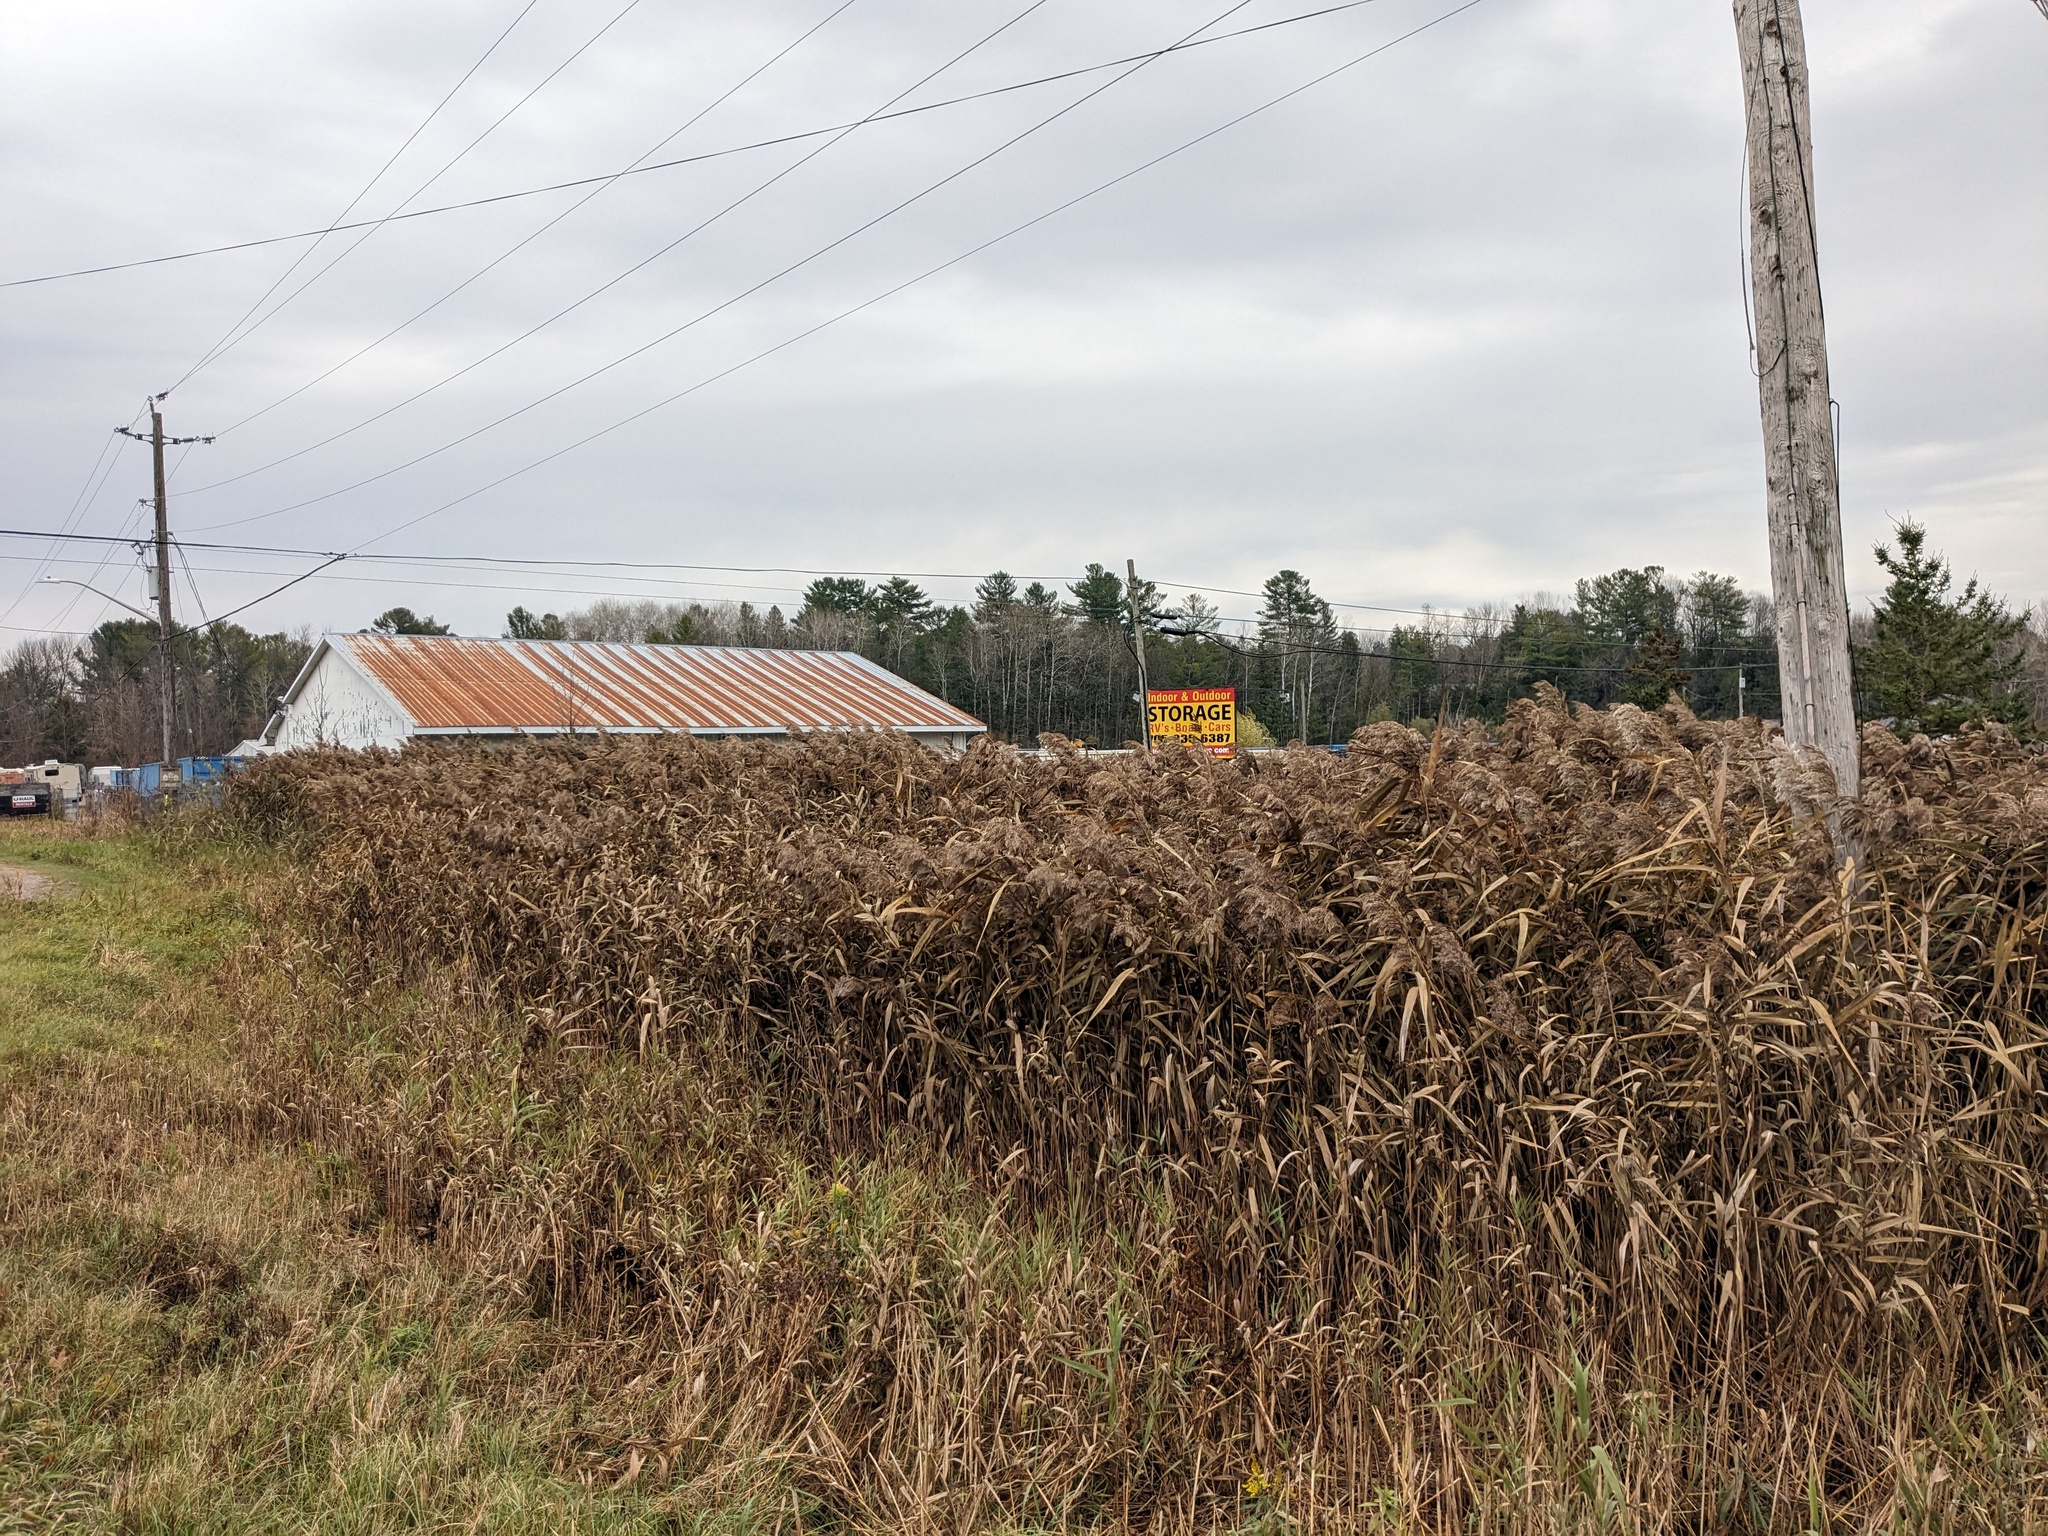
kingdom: Plantae
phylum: Tracheophyta
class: Liliopsida
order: Poales
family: Poaceae
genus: Phragmites
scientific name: Phragmites australis
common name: Common reed
